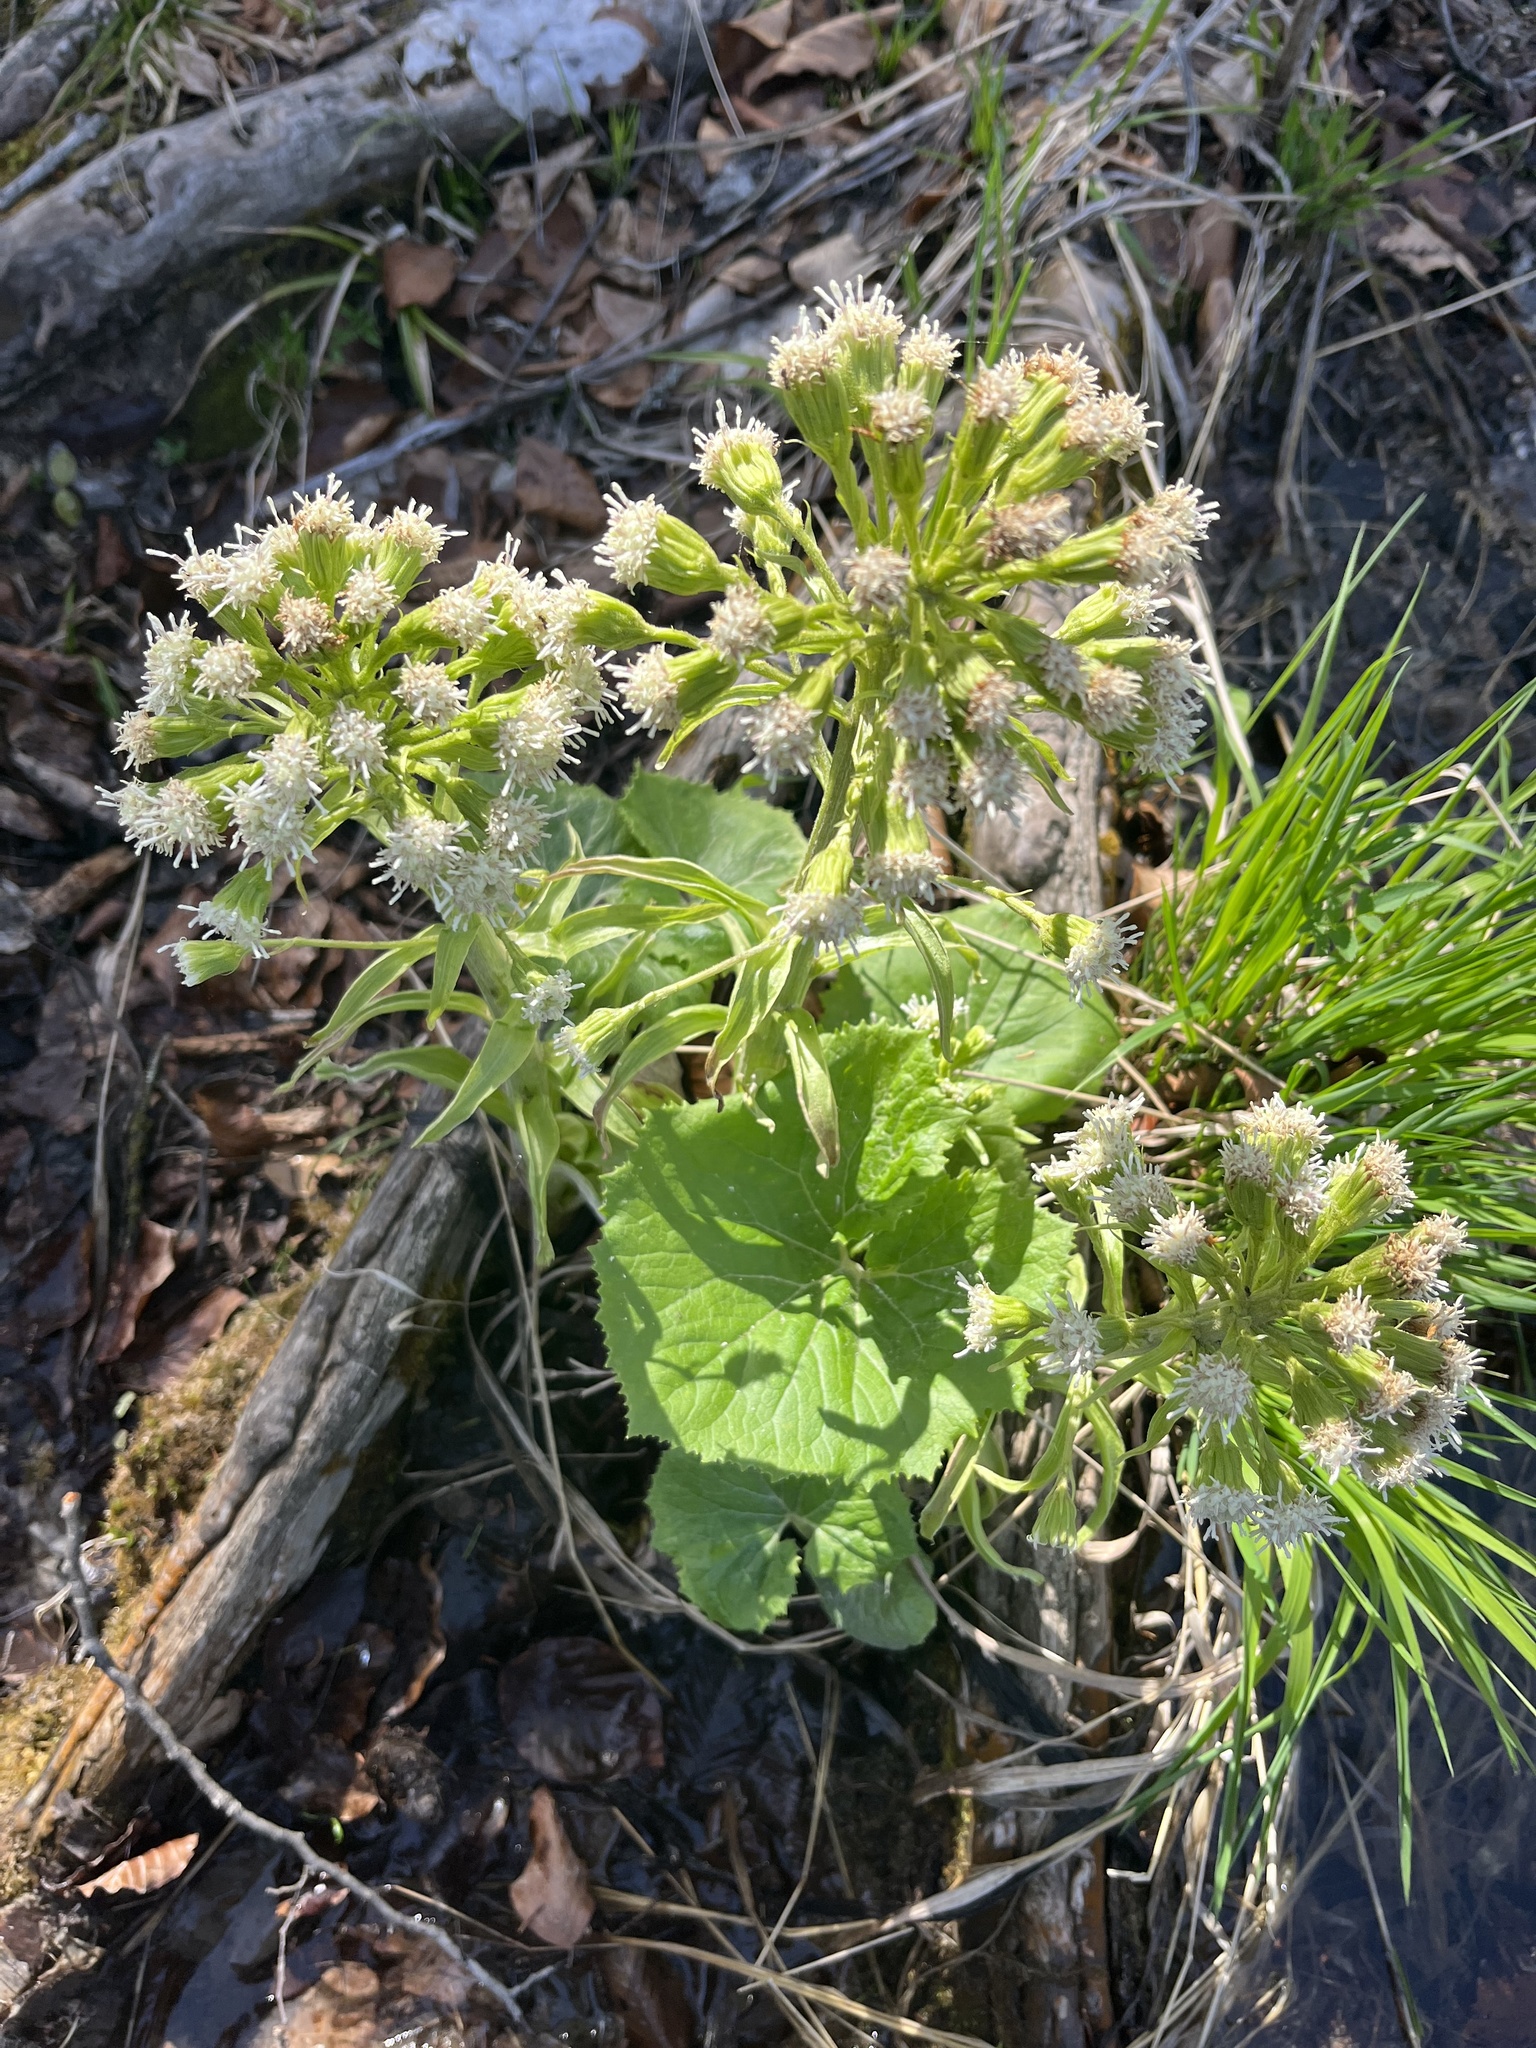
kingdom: Plantae
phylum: Tracheophyta
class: Magnoliopsida
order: Asterales
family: Asteraceae
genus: Petasites
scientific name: Petasites albus
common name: White butterbur
